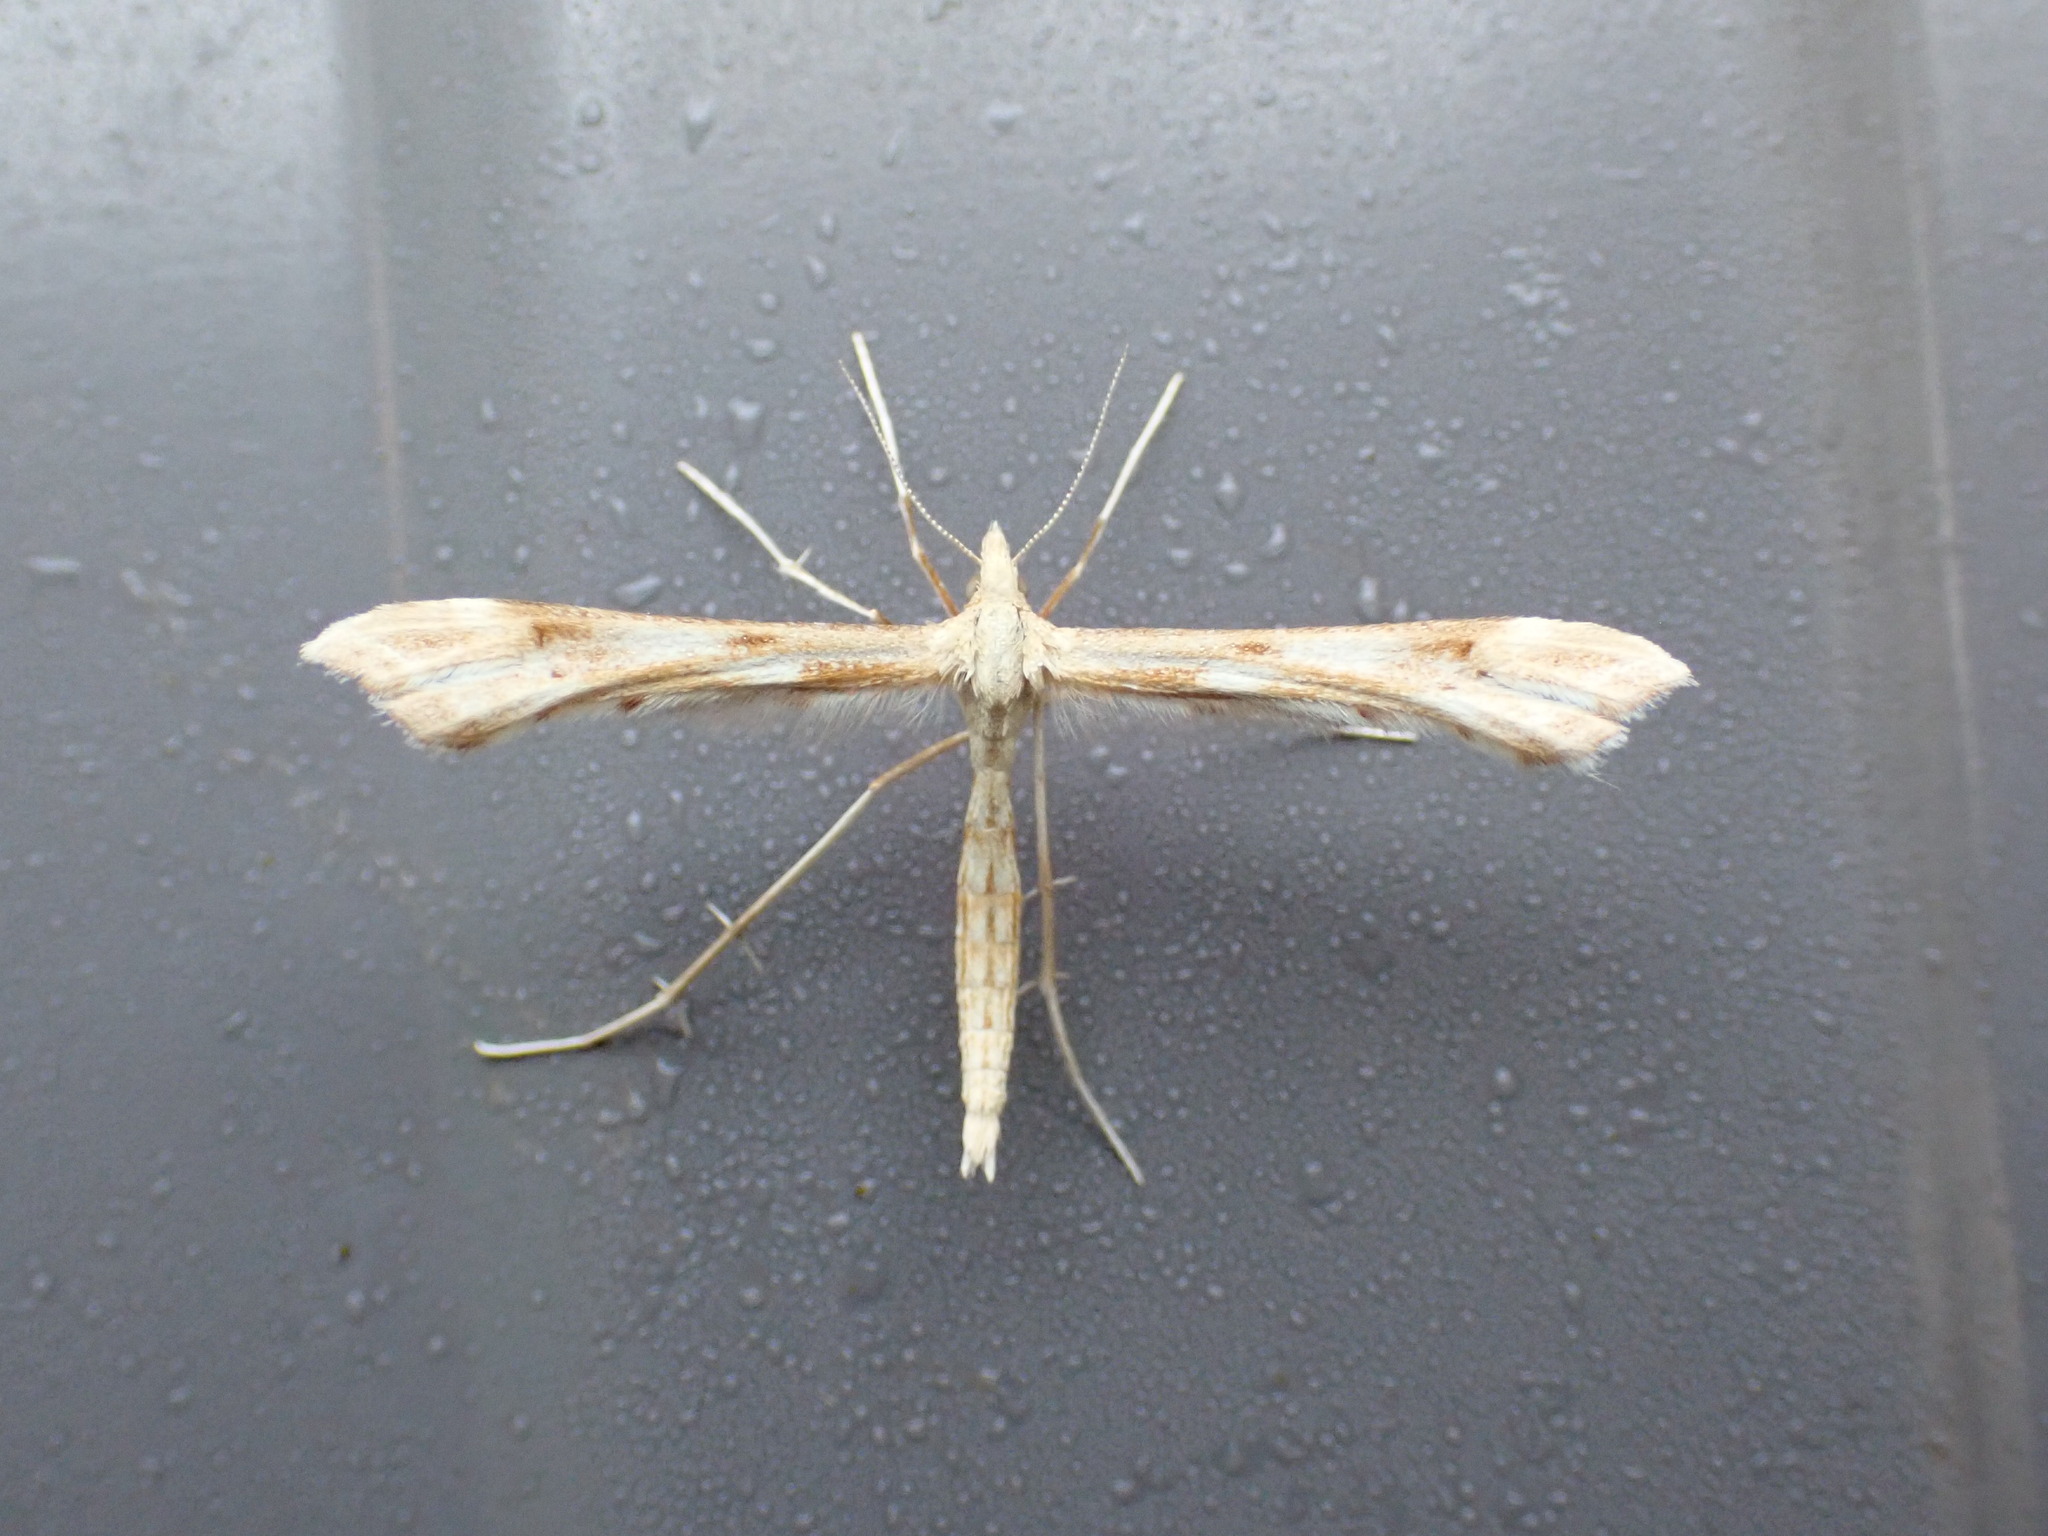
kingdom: Animalia
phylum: Arthropoda
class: Insecta
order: Lepidoptera
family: Pterophoridae
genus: Gillmeria
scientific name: Gillmeria pallidactyla
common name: Yarrow plume
